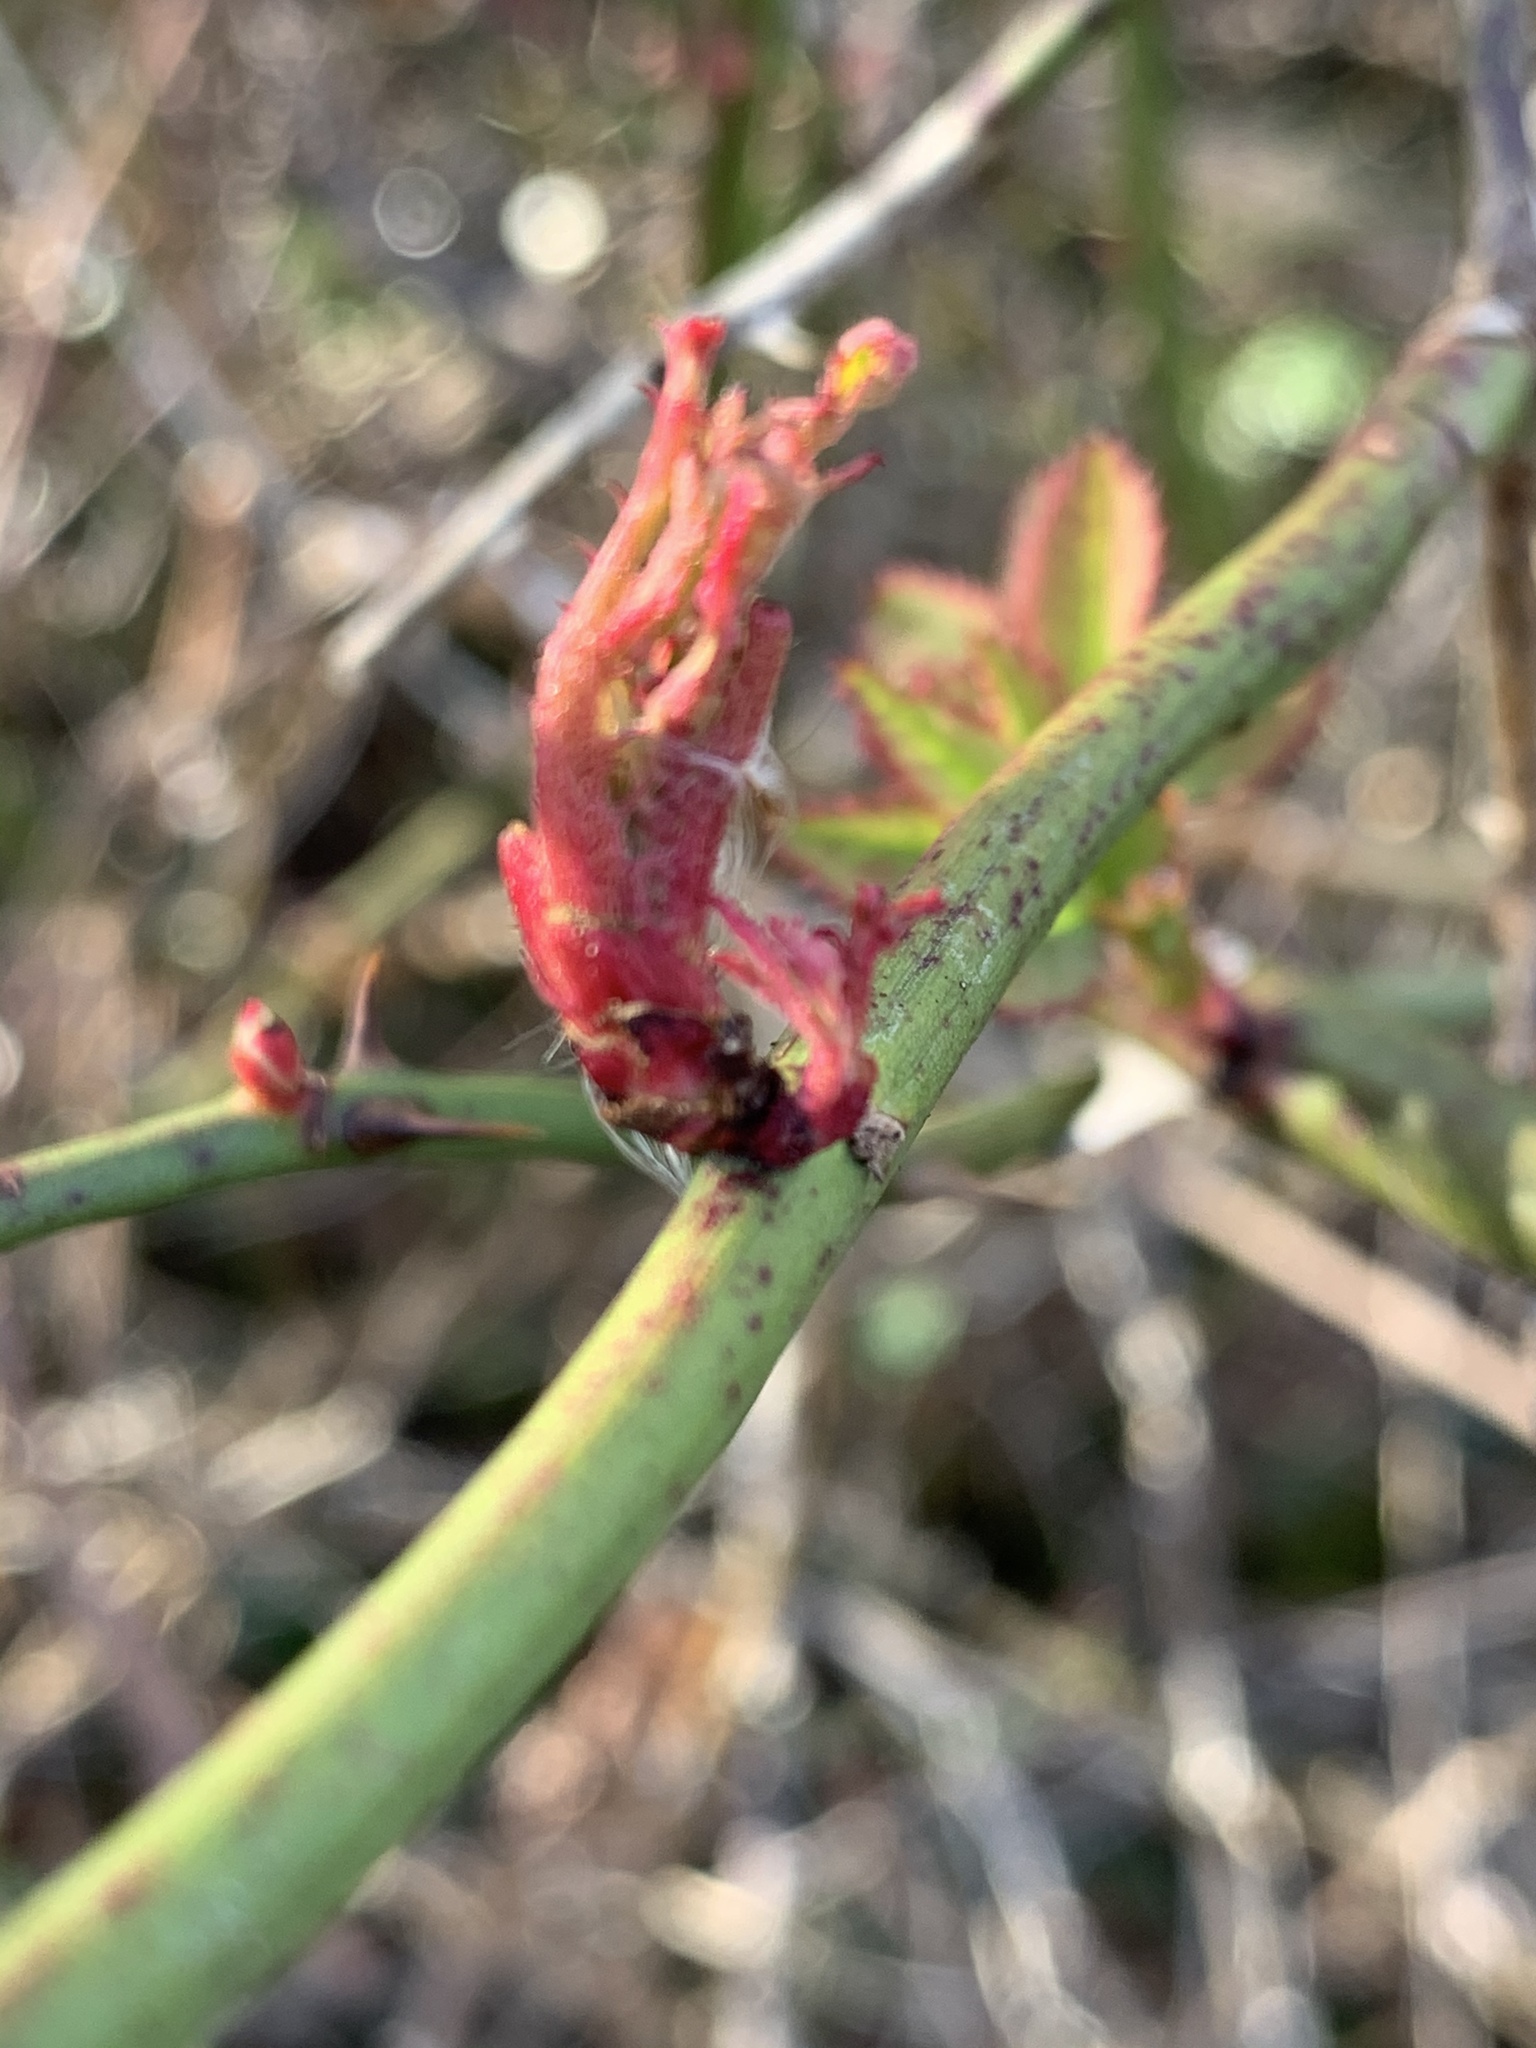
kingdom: Plantae
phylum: Tracheophyta
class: Magnoliopsida
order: Rosales
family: Rosaceae
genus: Rosa
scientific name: Rosa multiflora
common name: Multiflora rose
